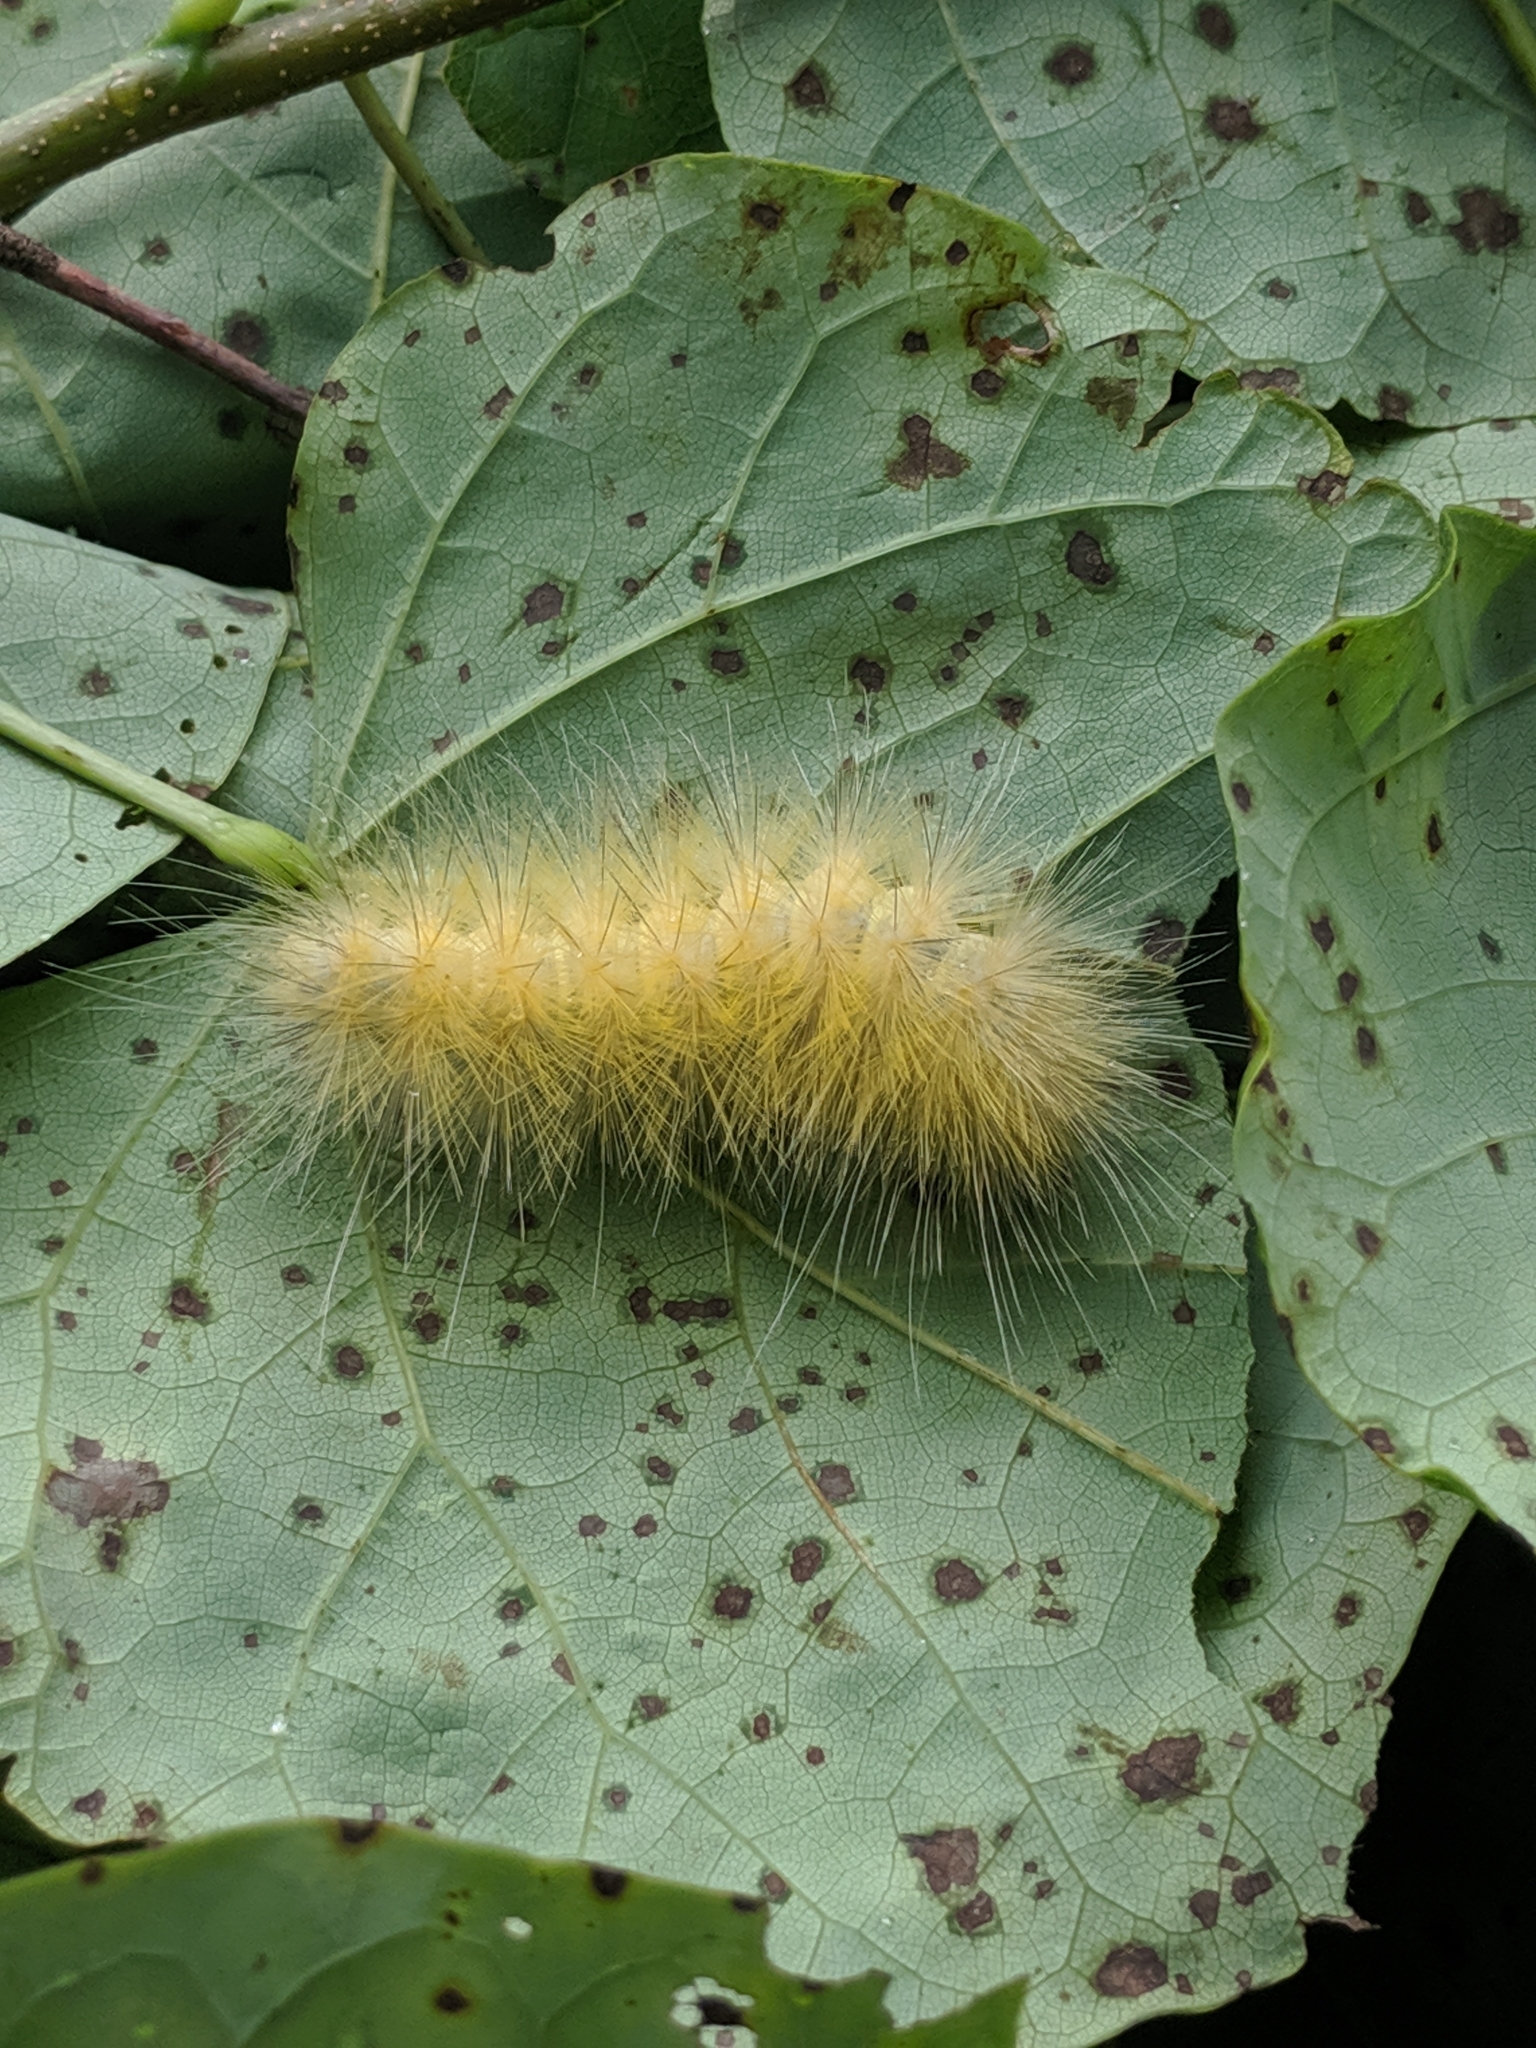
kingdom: Animalia
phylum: Arthropoda
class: Insecta
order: Lepidoptera
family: Erebidae
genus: Spilosoma
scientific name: Spilosoma virginica
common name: Virginia tiger moth
